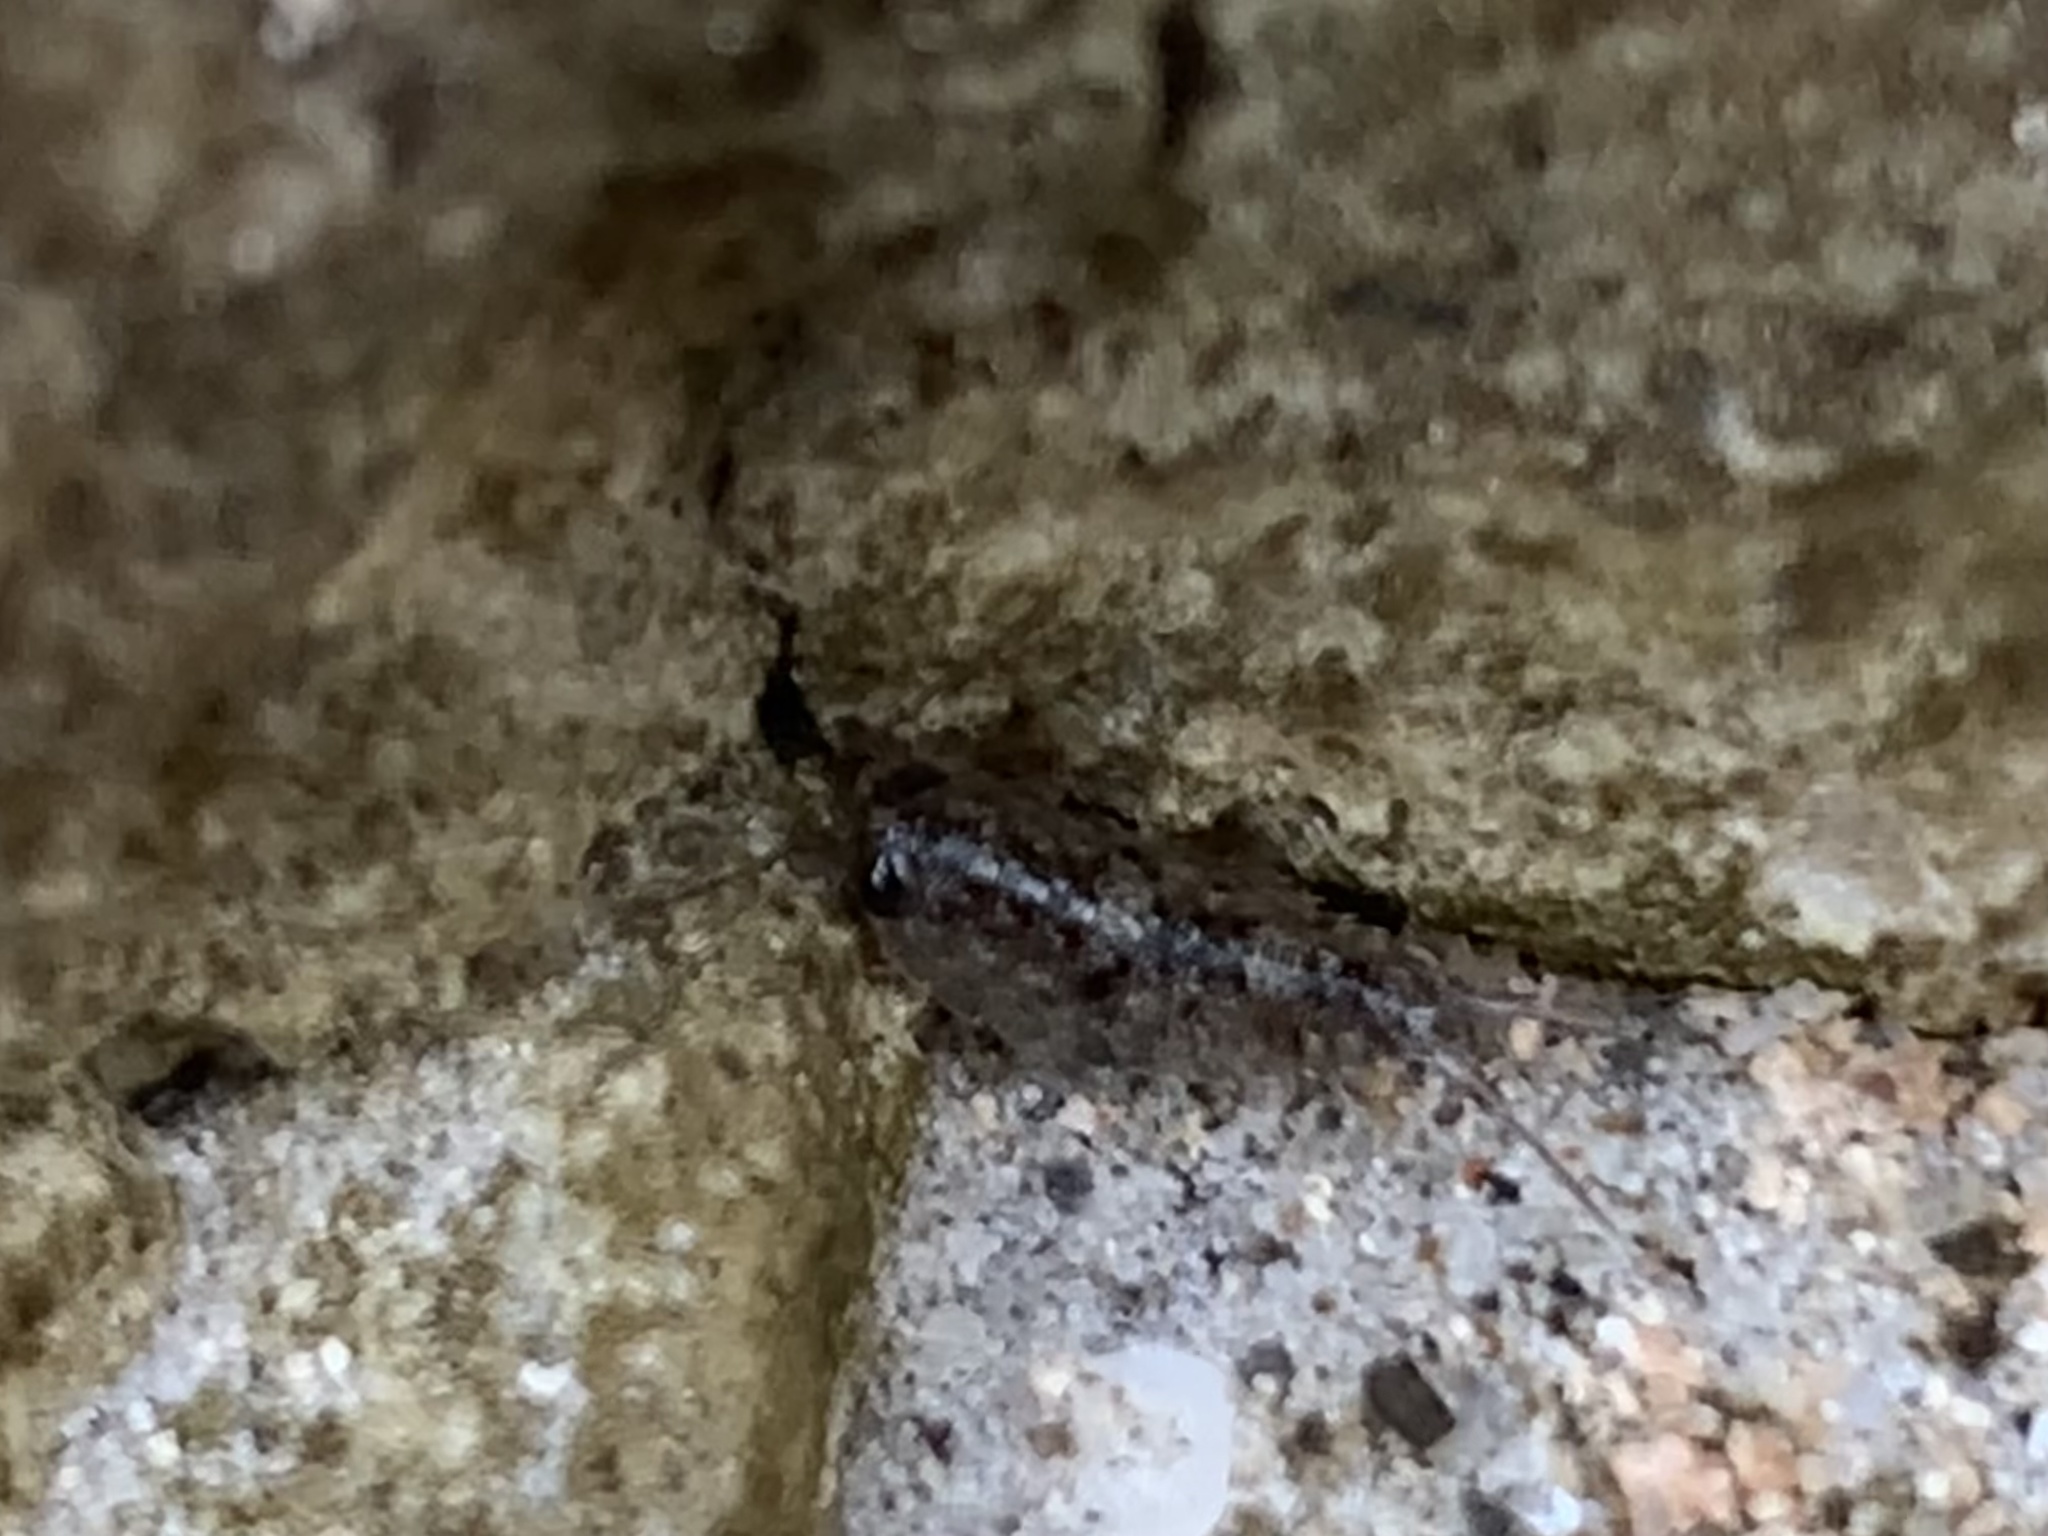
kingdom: Animalia
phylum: Arthropoda
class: Malacostraca
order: Isopoda
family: Ligiidae
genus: Ligia
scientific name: Ligia exotica
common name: Wharf roach
